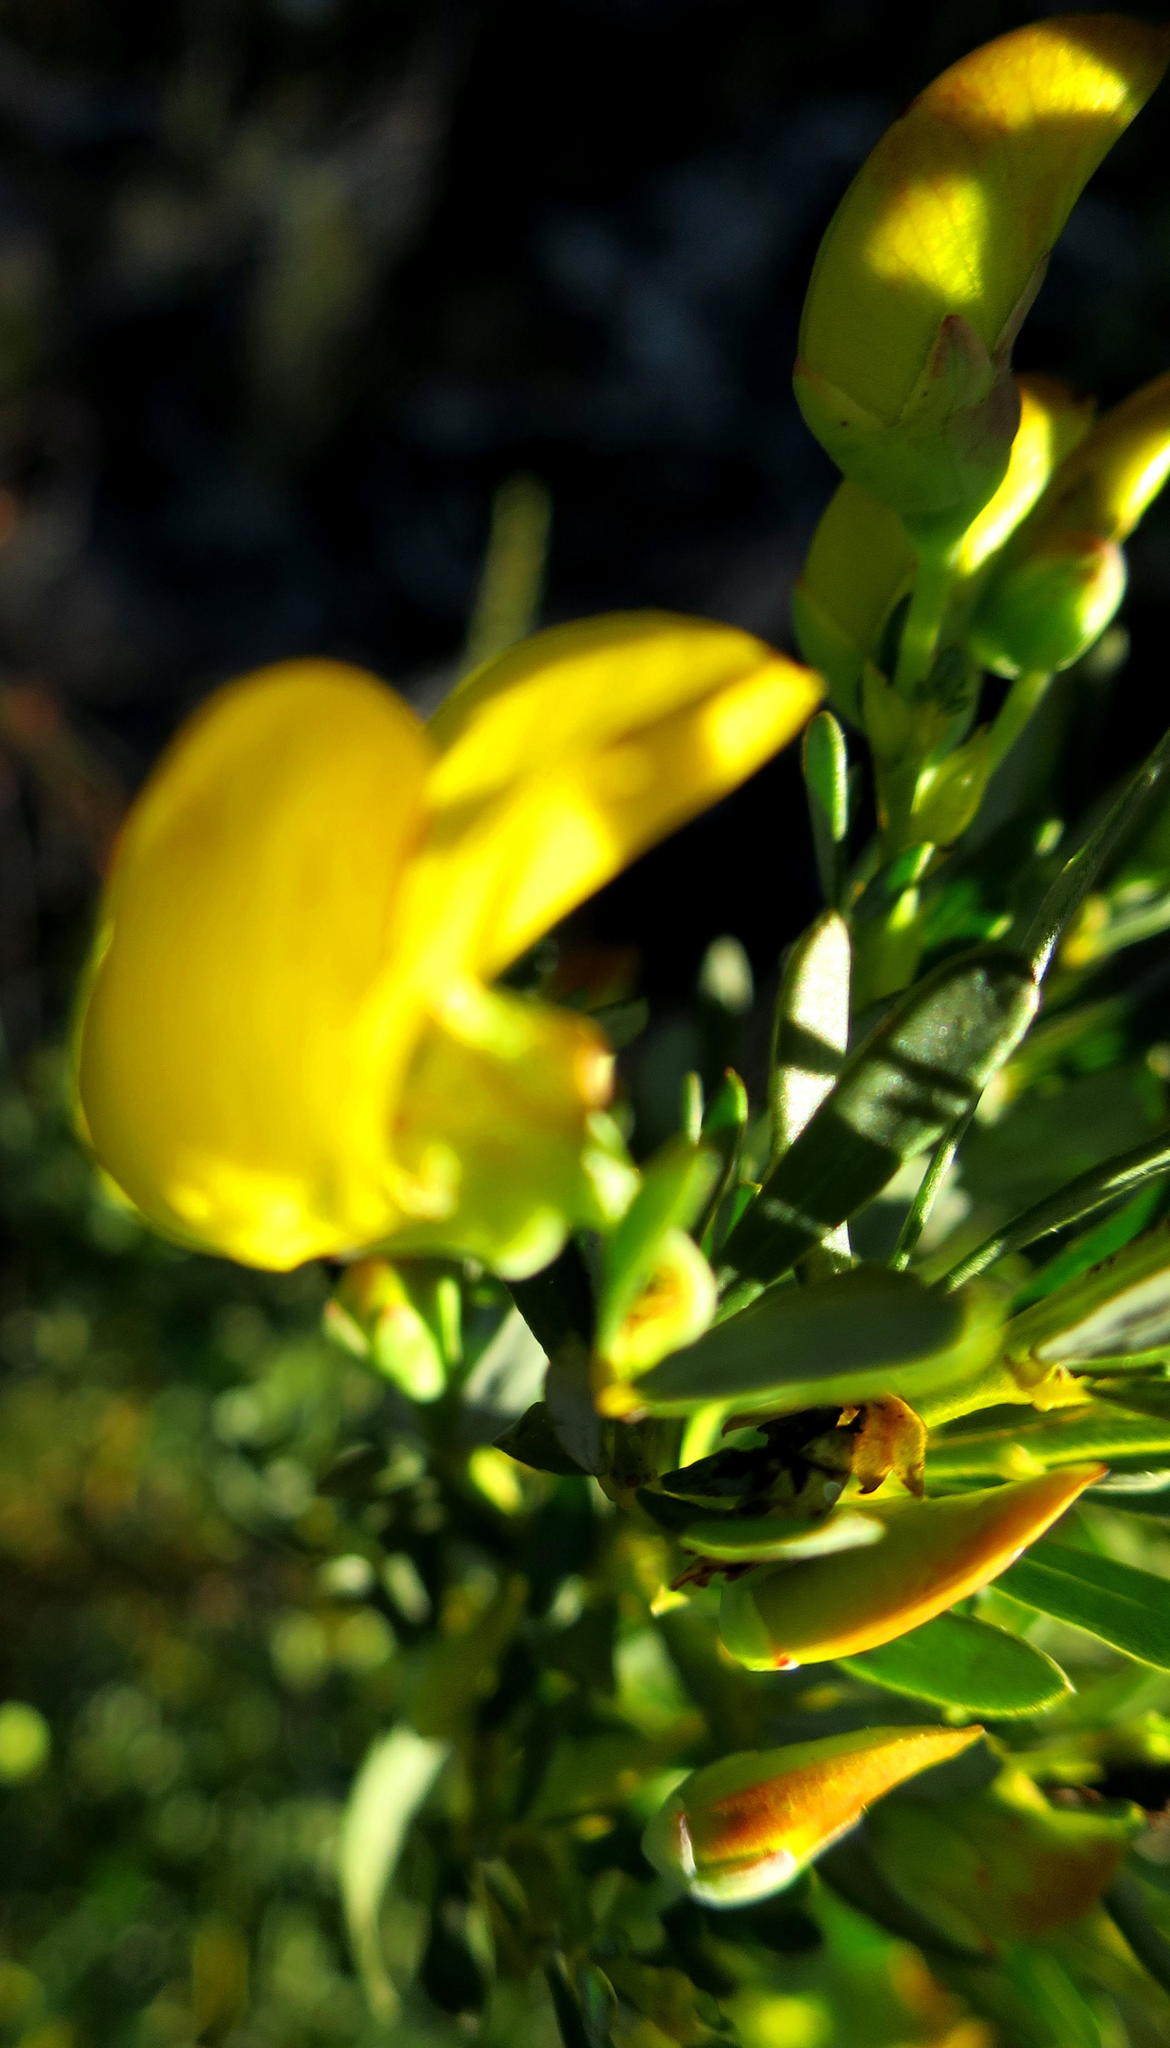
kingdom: Plantae
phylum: Tracheophyta
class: Magnoliopsida
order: Fabales
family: Fabaceae
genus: Cyclopia
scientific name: Cyclopia subternata
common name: Honeybush tea
